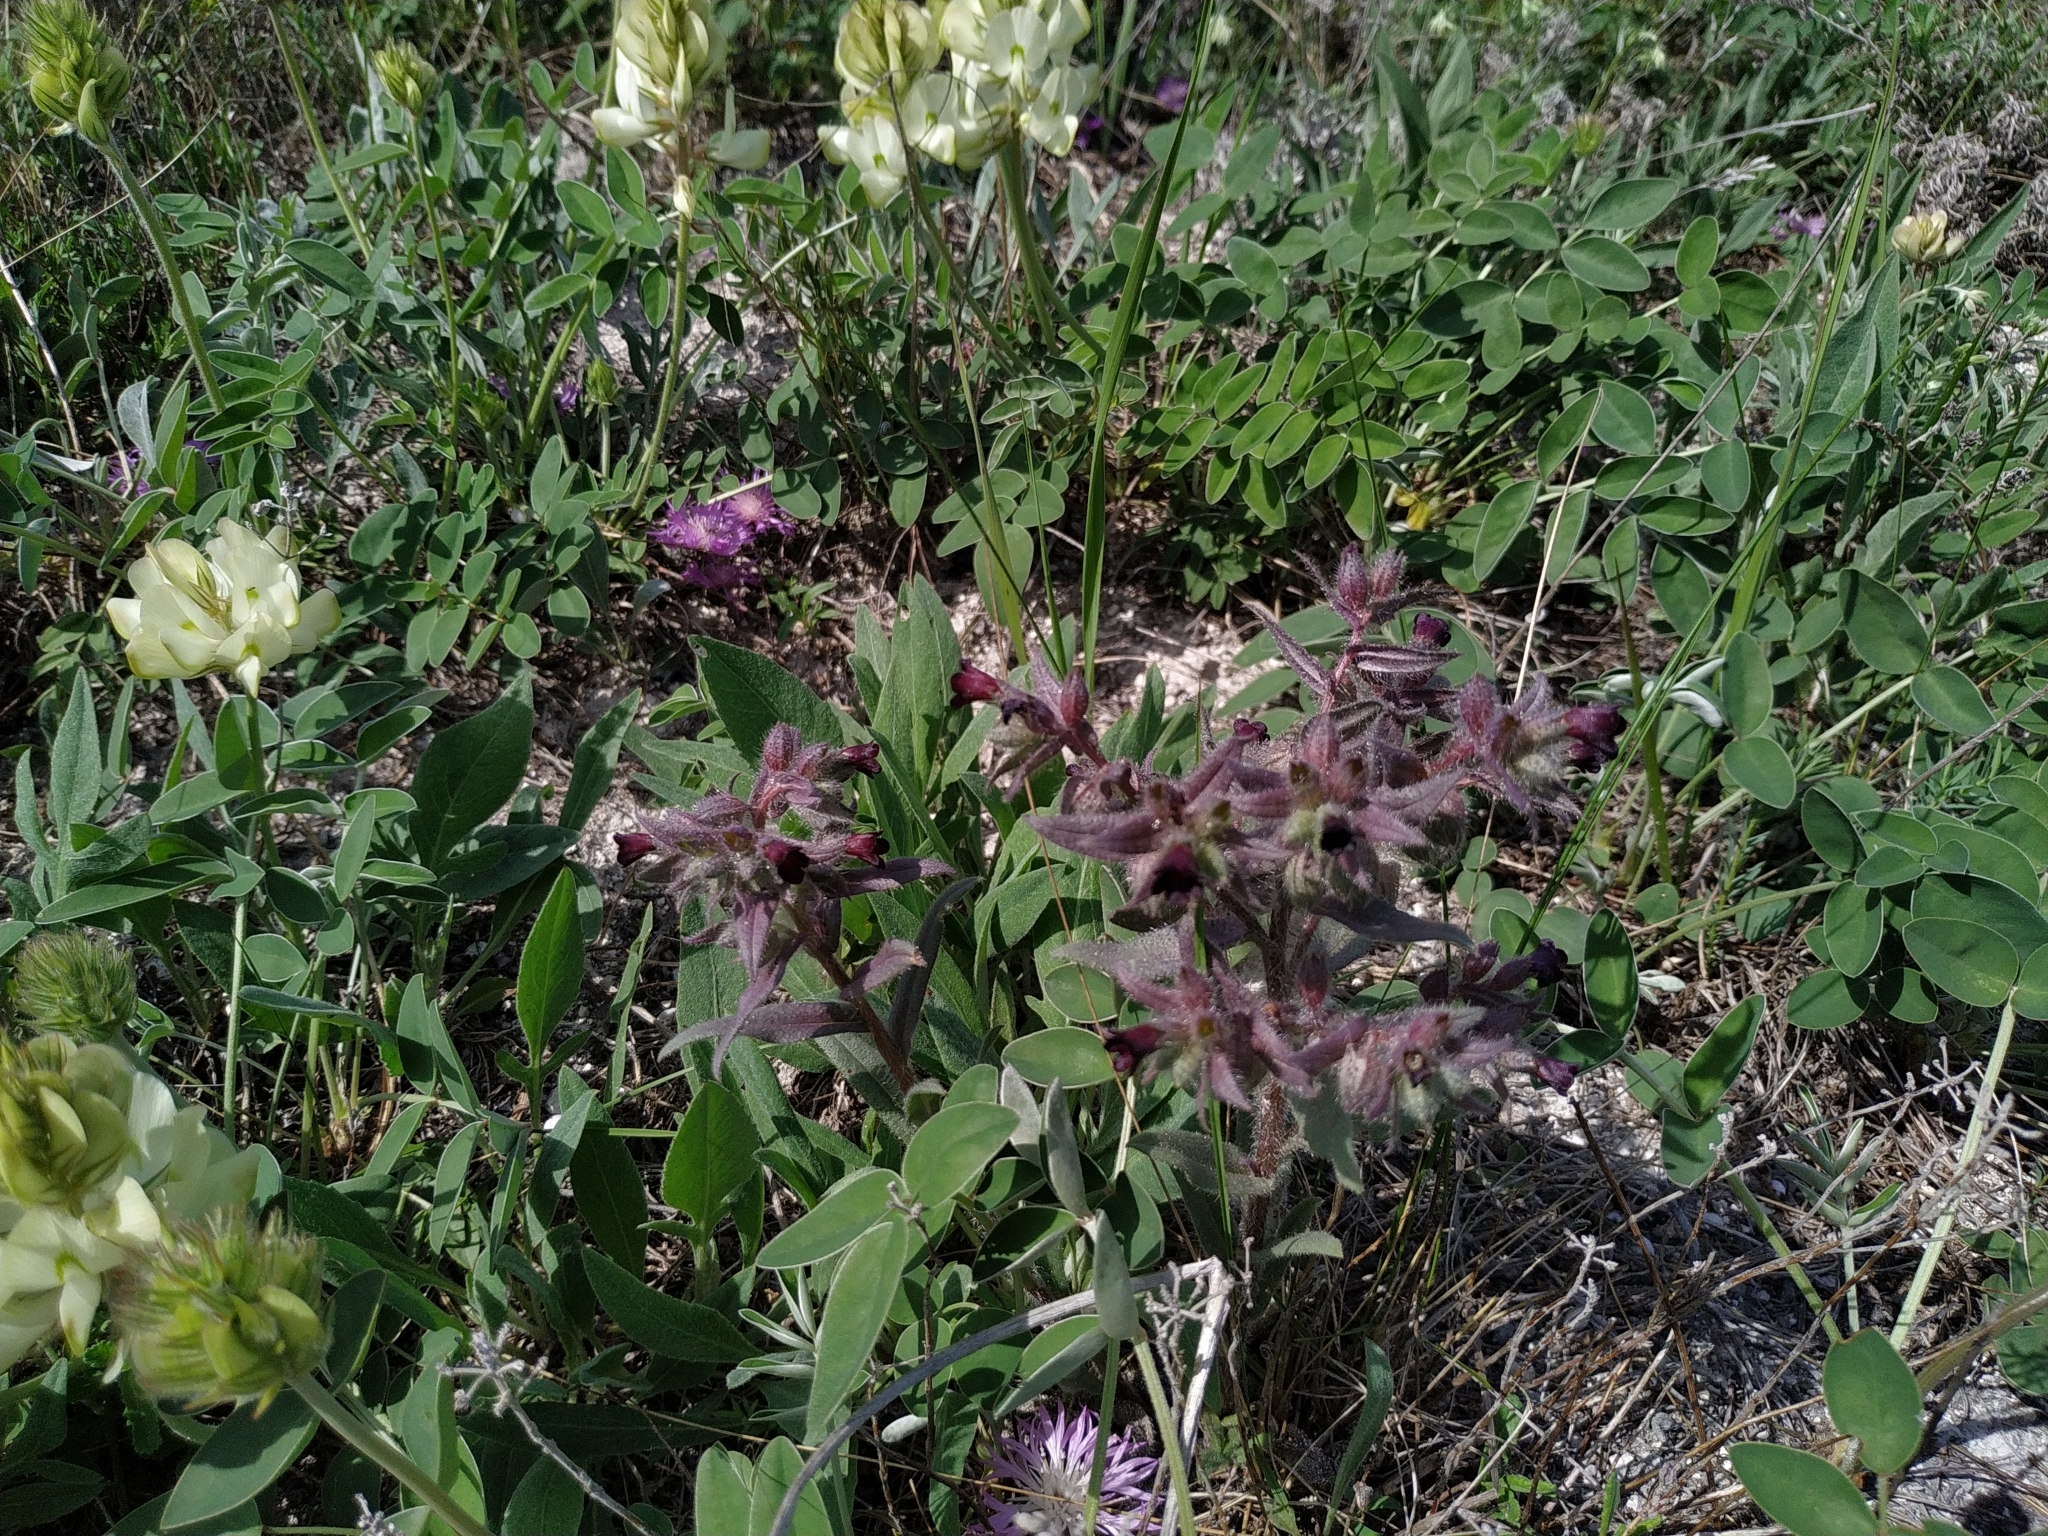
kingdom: Plantae
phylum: Tracheophyta
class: Magnoliopsida
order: Boraginales
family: Boraginaceae
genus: Nonea
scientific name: Nonea pulla
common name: Brown nonea
